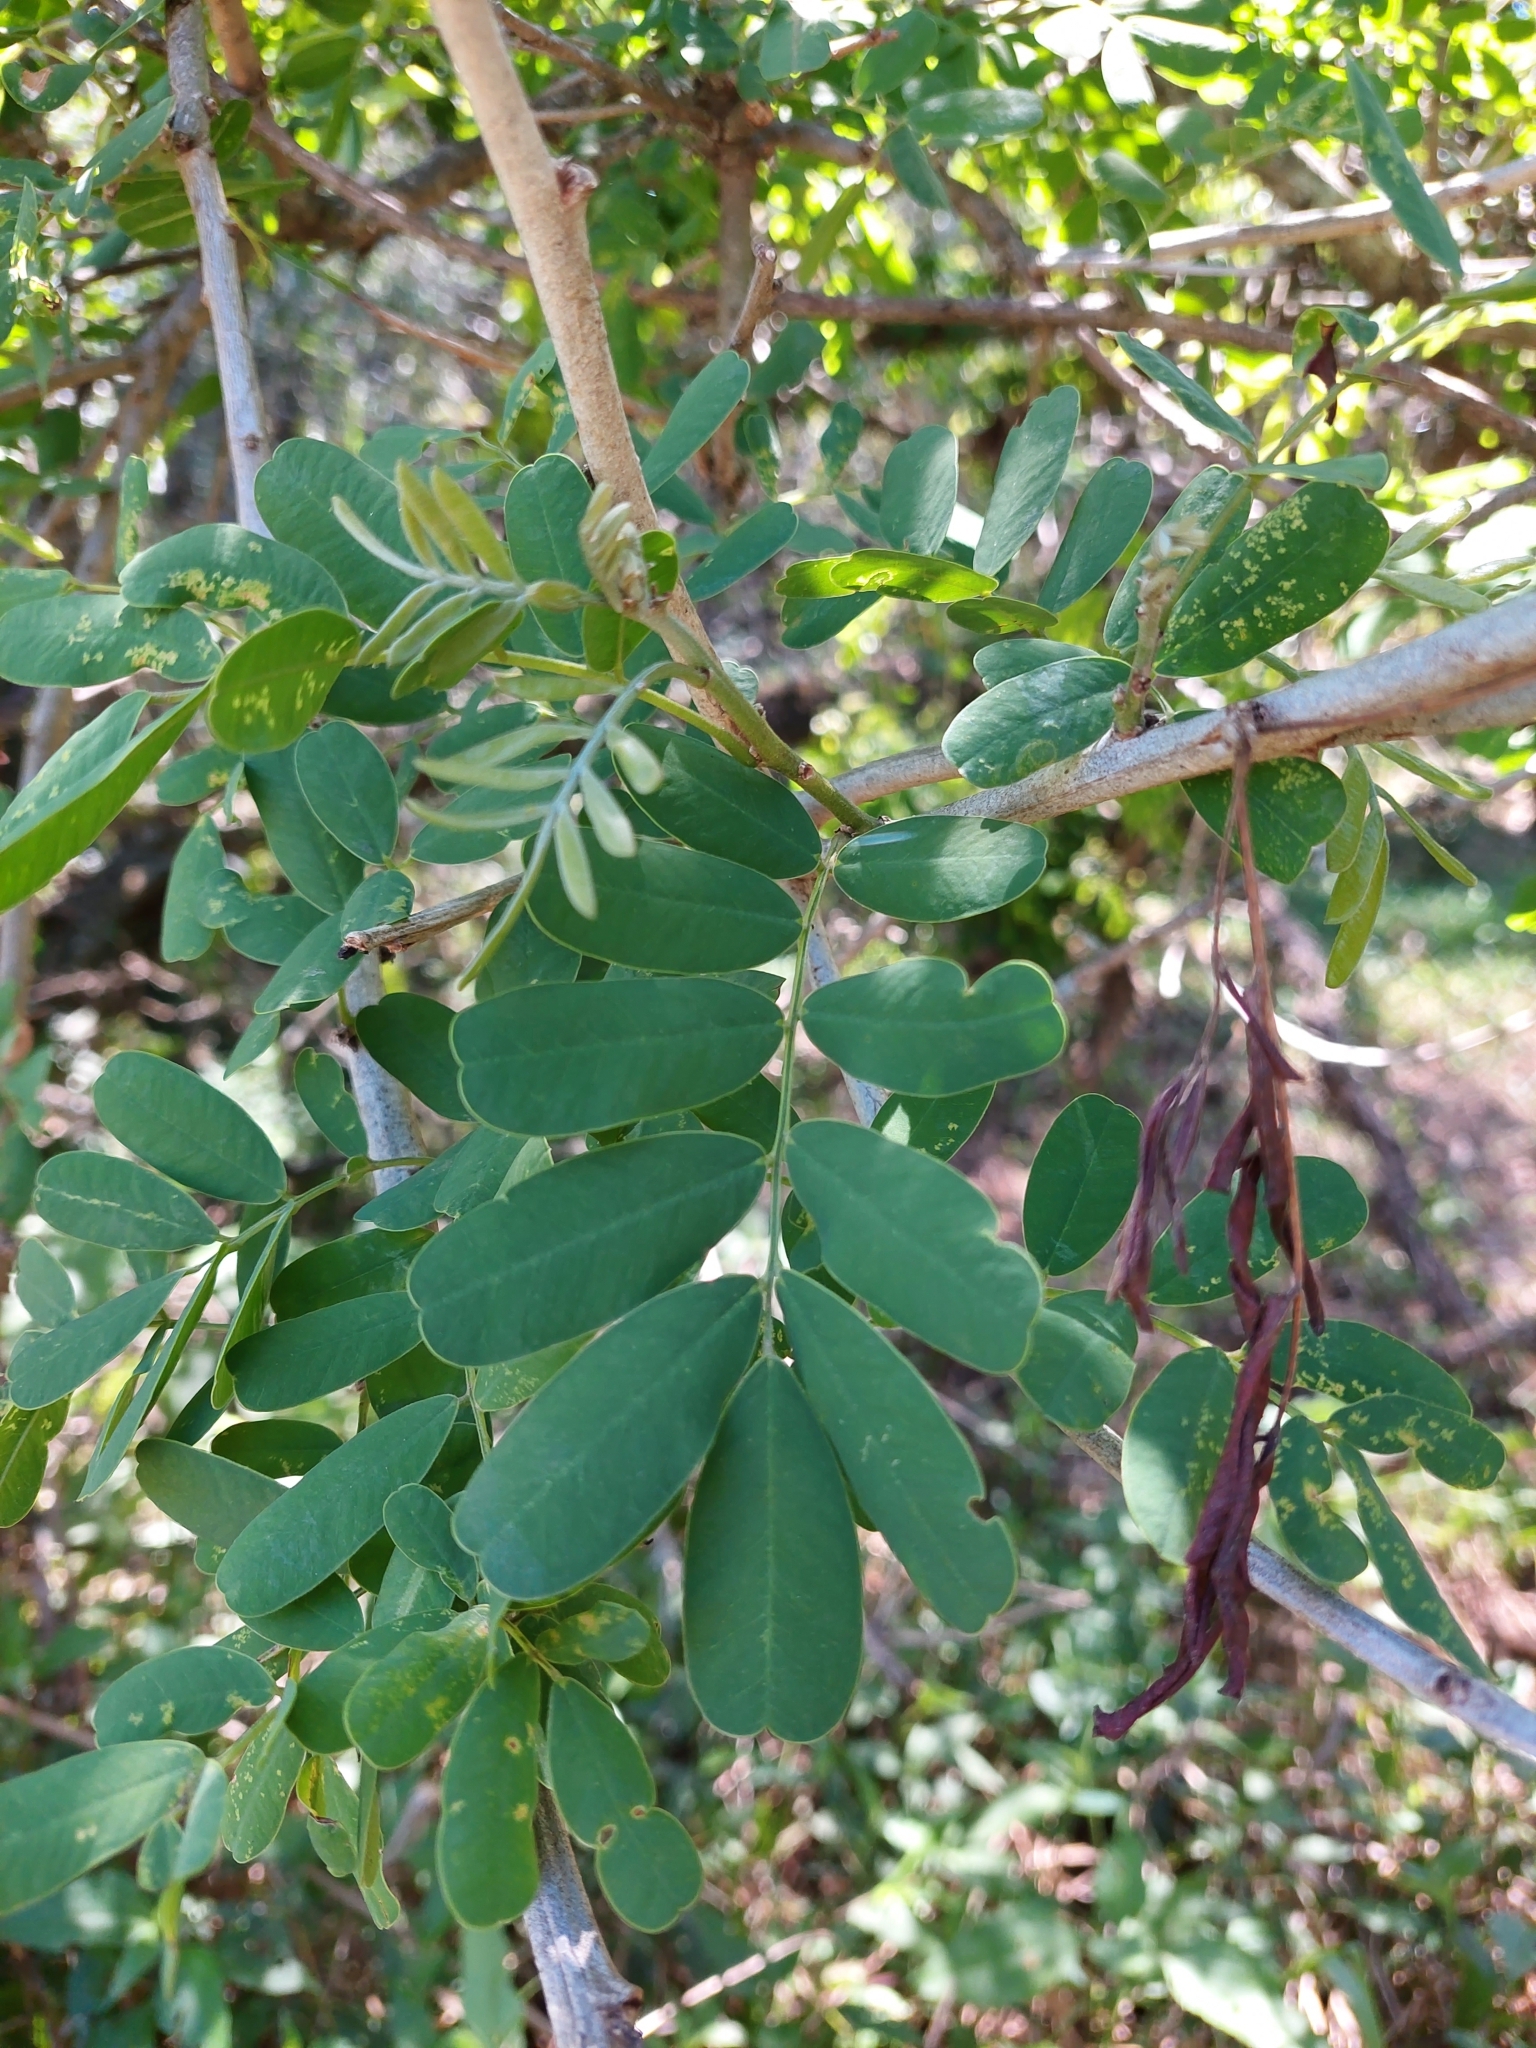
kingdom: Plantae
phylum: Tracheophyta
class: Magnoliopsida
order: Fabales
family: Fabaceae
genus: Geoffroea
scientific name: Geoffroea spinosa
